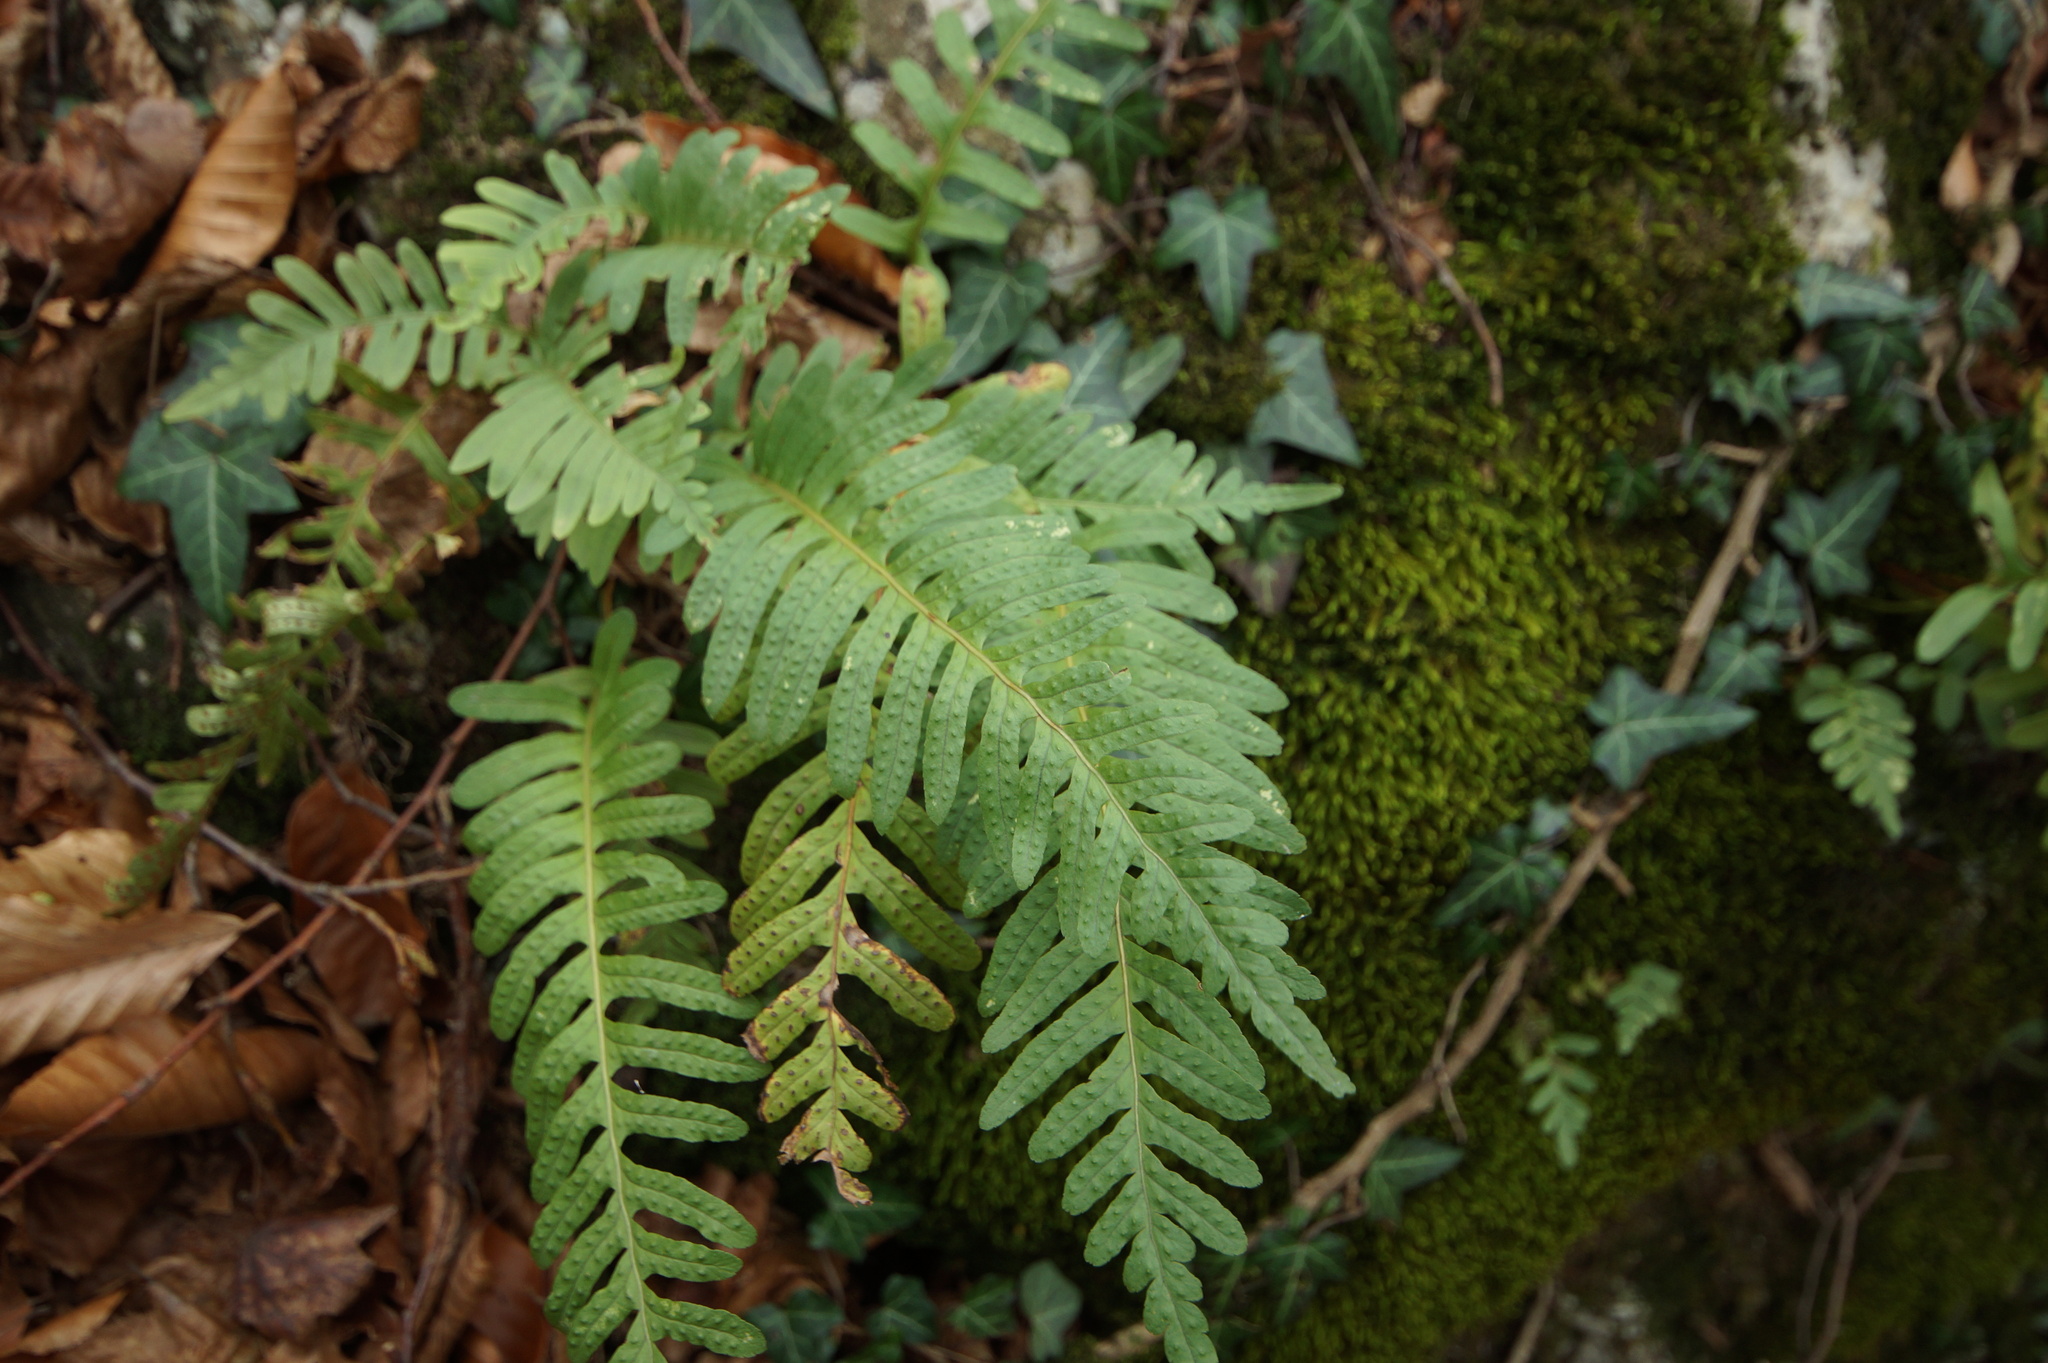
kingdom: Plantae
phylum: Tracheophyta
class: Polypodiopsida
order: Polypodiales
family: Polypodiaceae
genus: Polypodium
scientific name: Polypodium vulgare
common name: Common polypody
